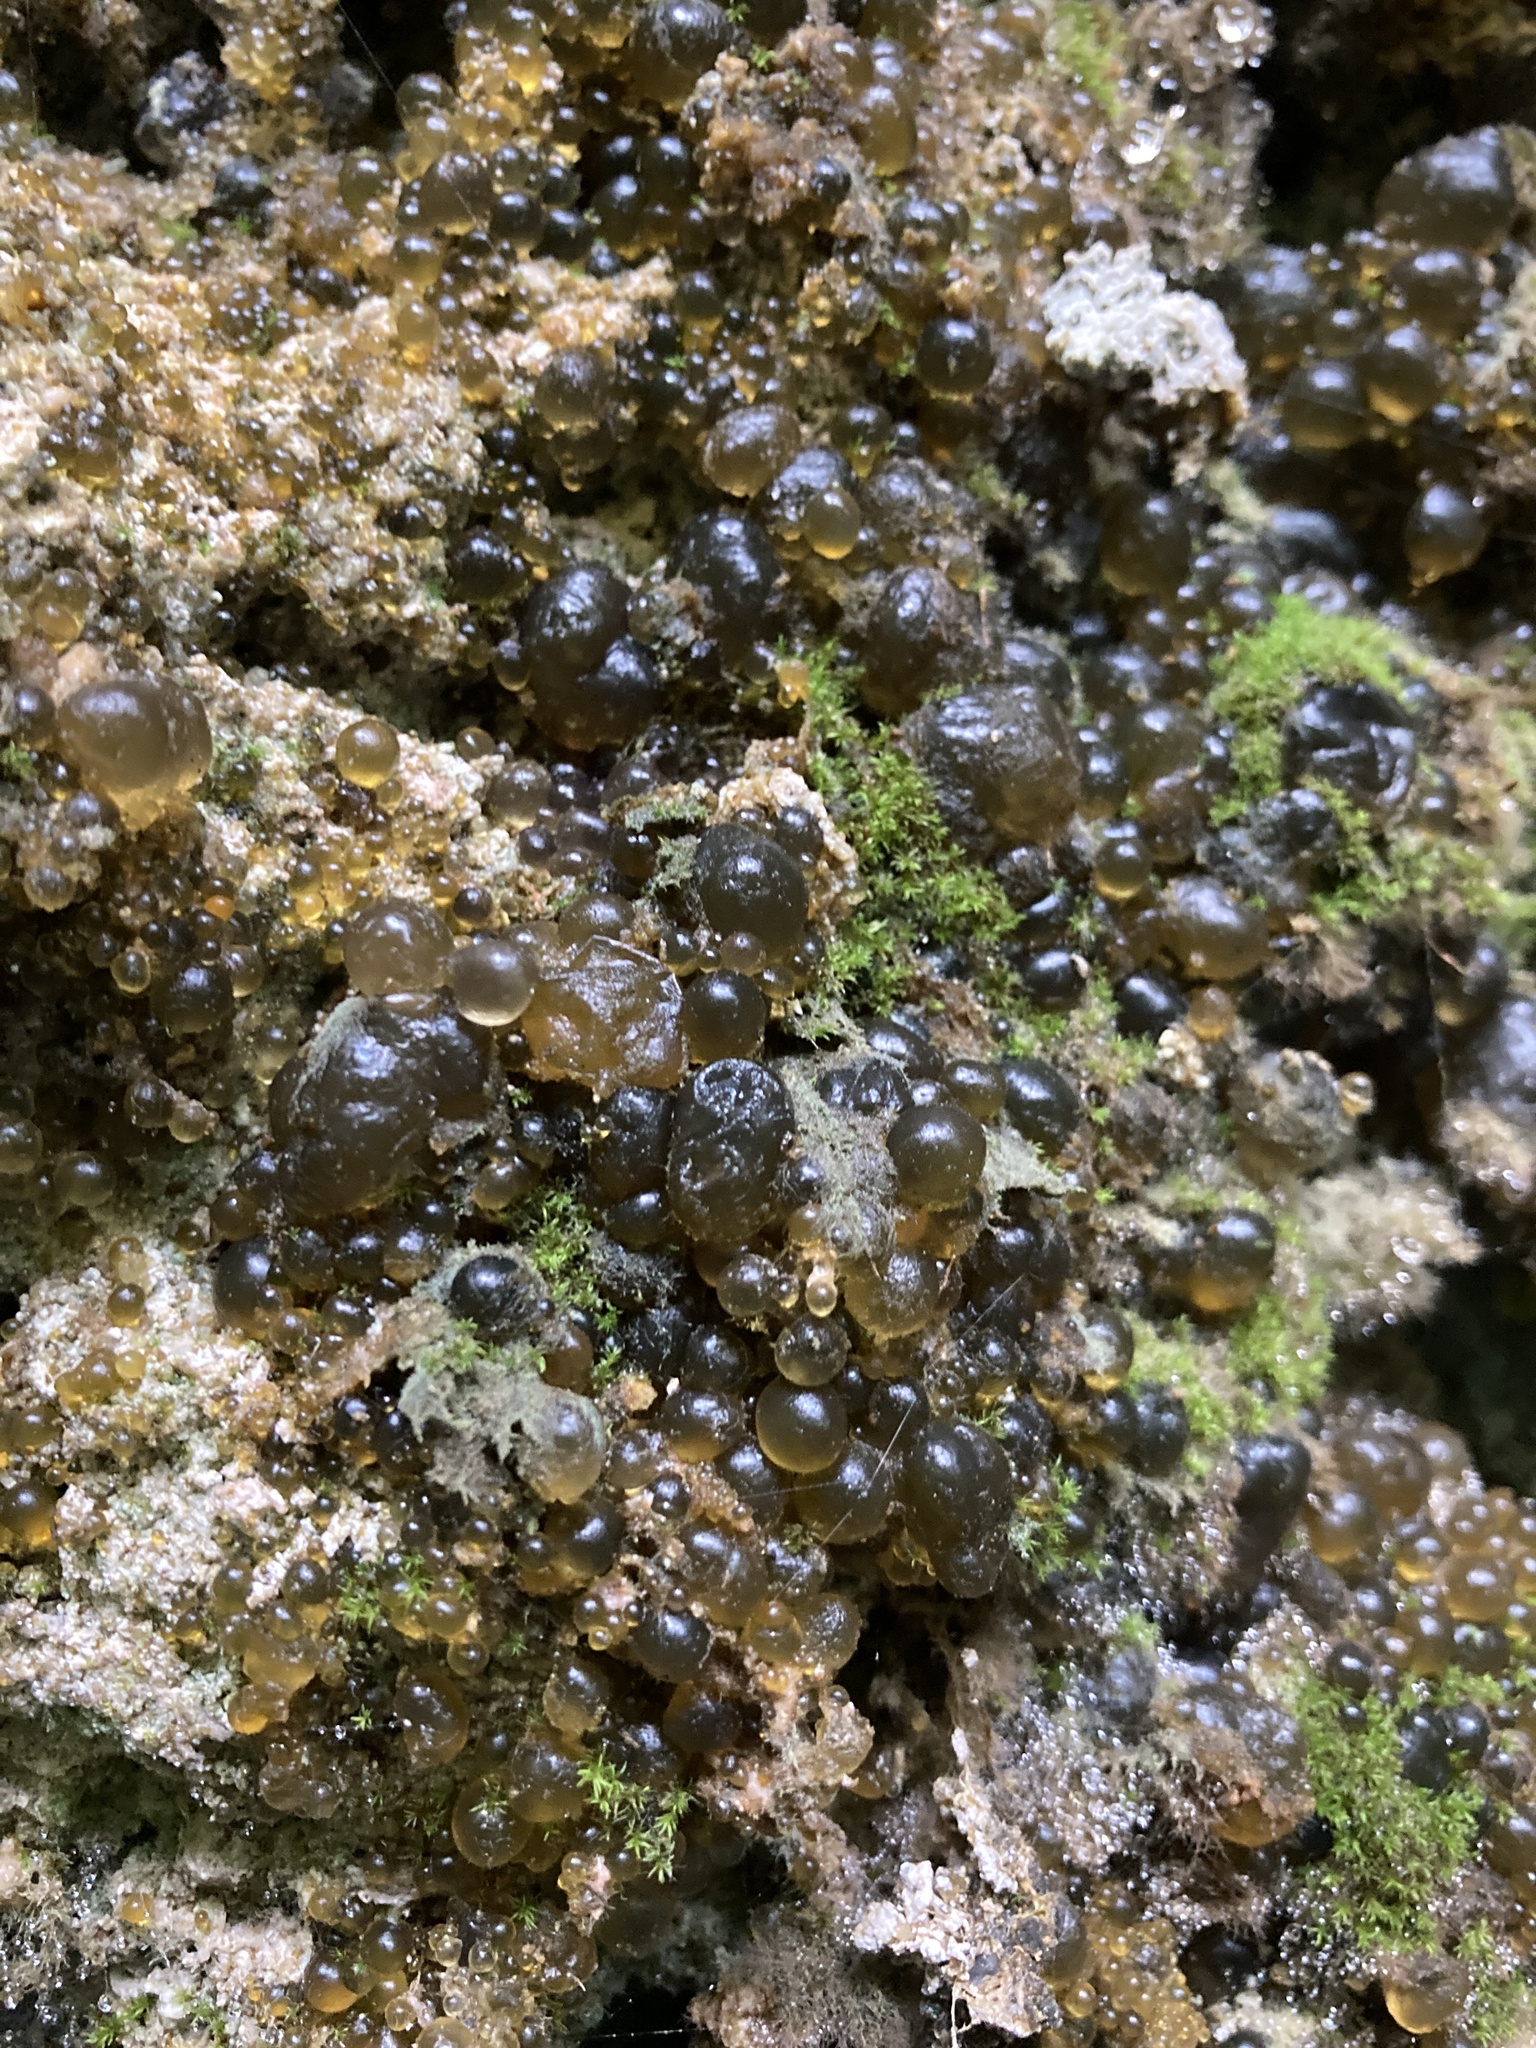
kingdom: Bacteria
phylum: Cyanobacteria
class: Cyanobacteriia
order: Cyanobacteriales
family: Nostocaceae
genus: Nostoc
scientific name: Nostoc pruniforme
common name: Mare's eggs
